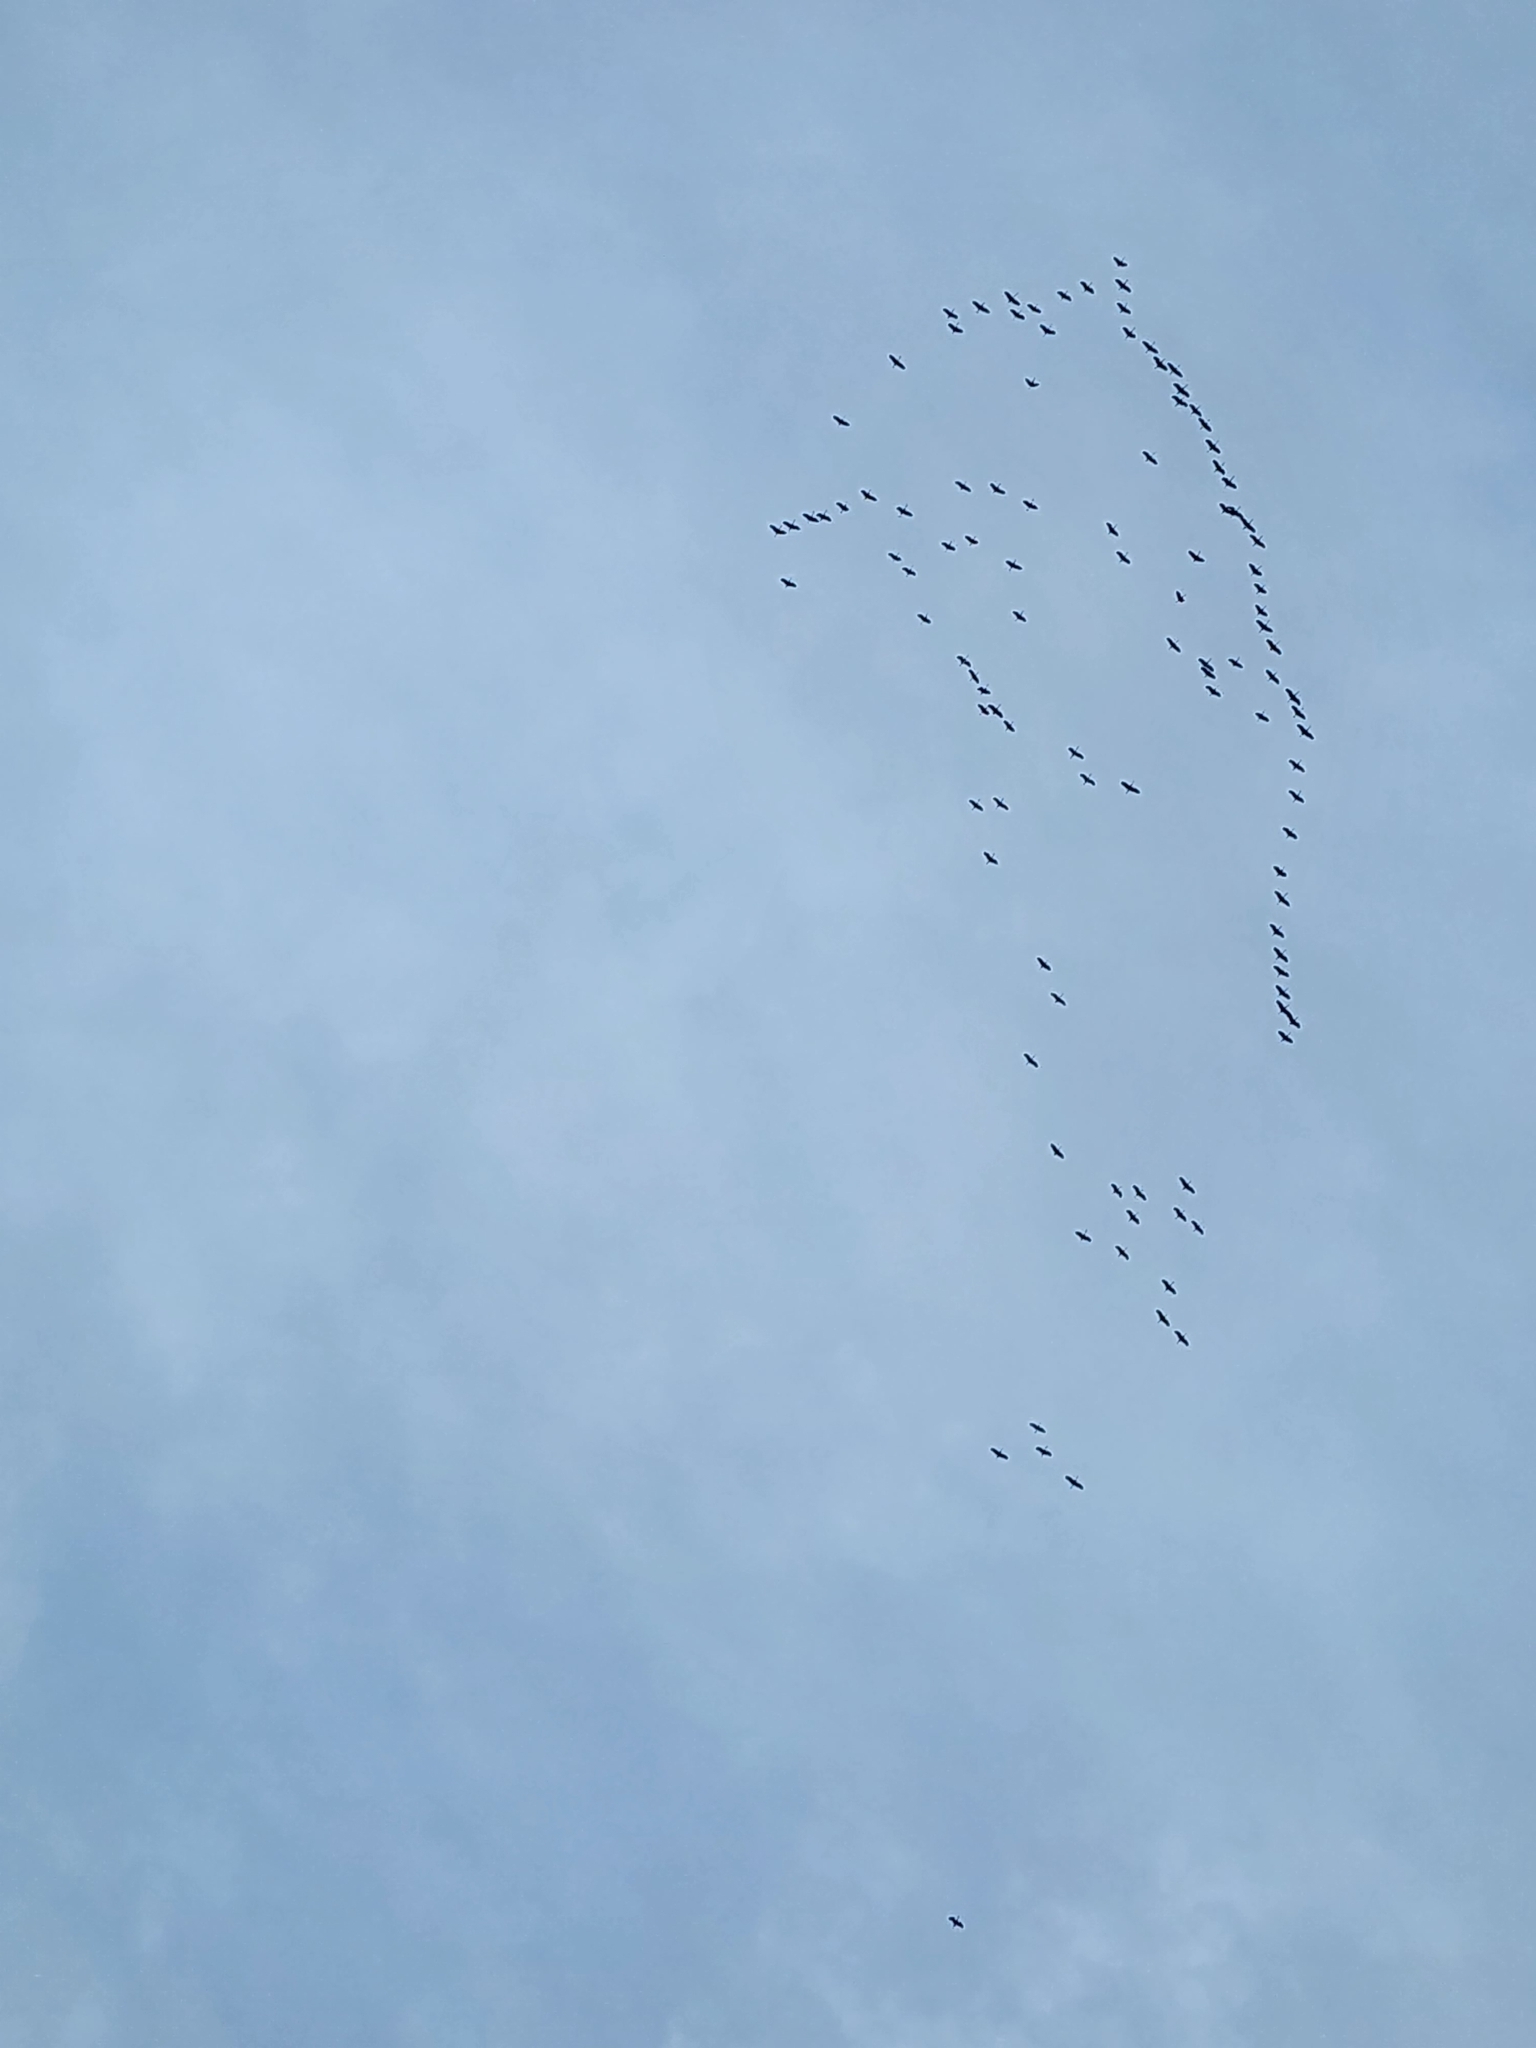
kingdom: Animalia
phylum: Chordata
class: Aves
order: Gruiformes
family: Gruidae
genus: Grus
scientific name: Grus canadensis
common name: Sandhill crane
